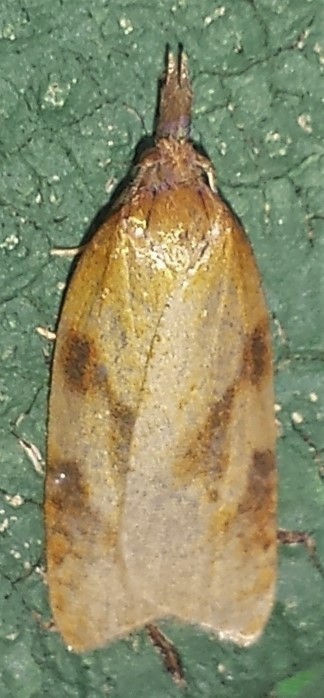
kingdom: Animalia
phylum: Arthropoda
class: Insecta
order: Lepidoptera
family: Tortricidae
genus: Sparganothis
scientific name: Sparganothis unifasciana
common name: One-lined sparganothis moth
